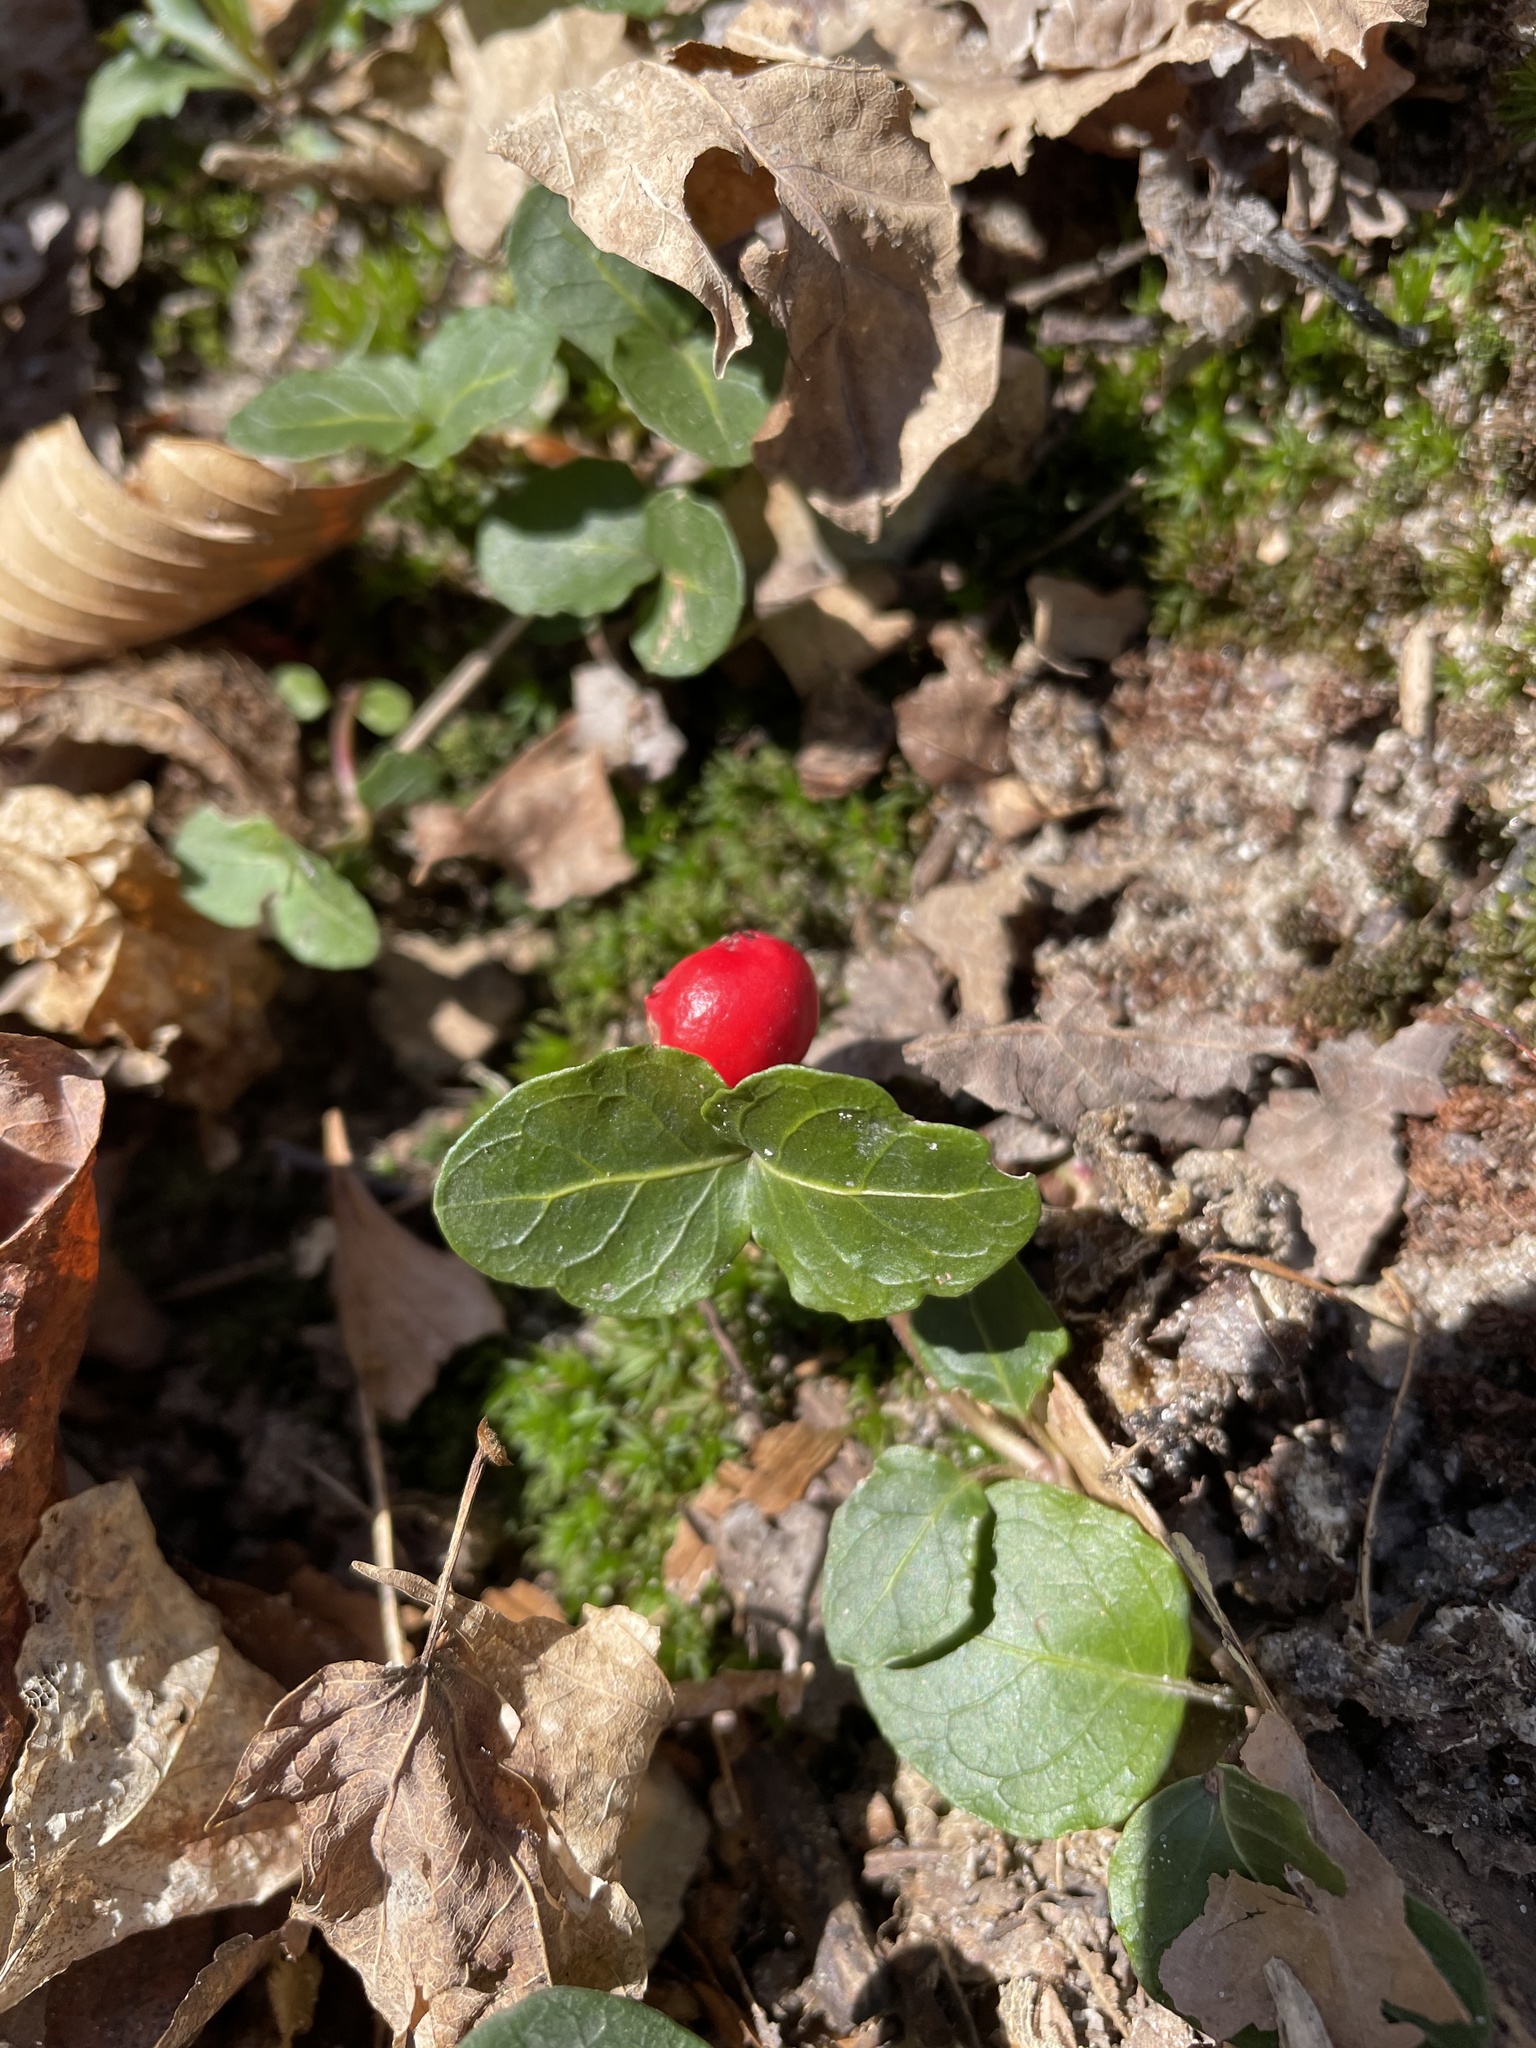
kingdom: Plantae
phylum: Tracheophyta
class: Magnoliopsida
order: Gentianales
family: Rubiaceae
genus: Mitchella
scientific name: Mitchella repens
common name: Partridge-berry
